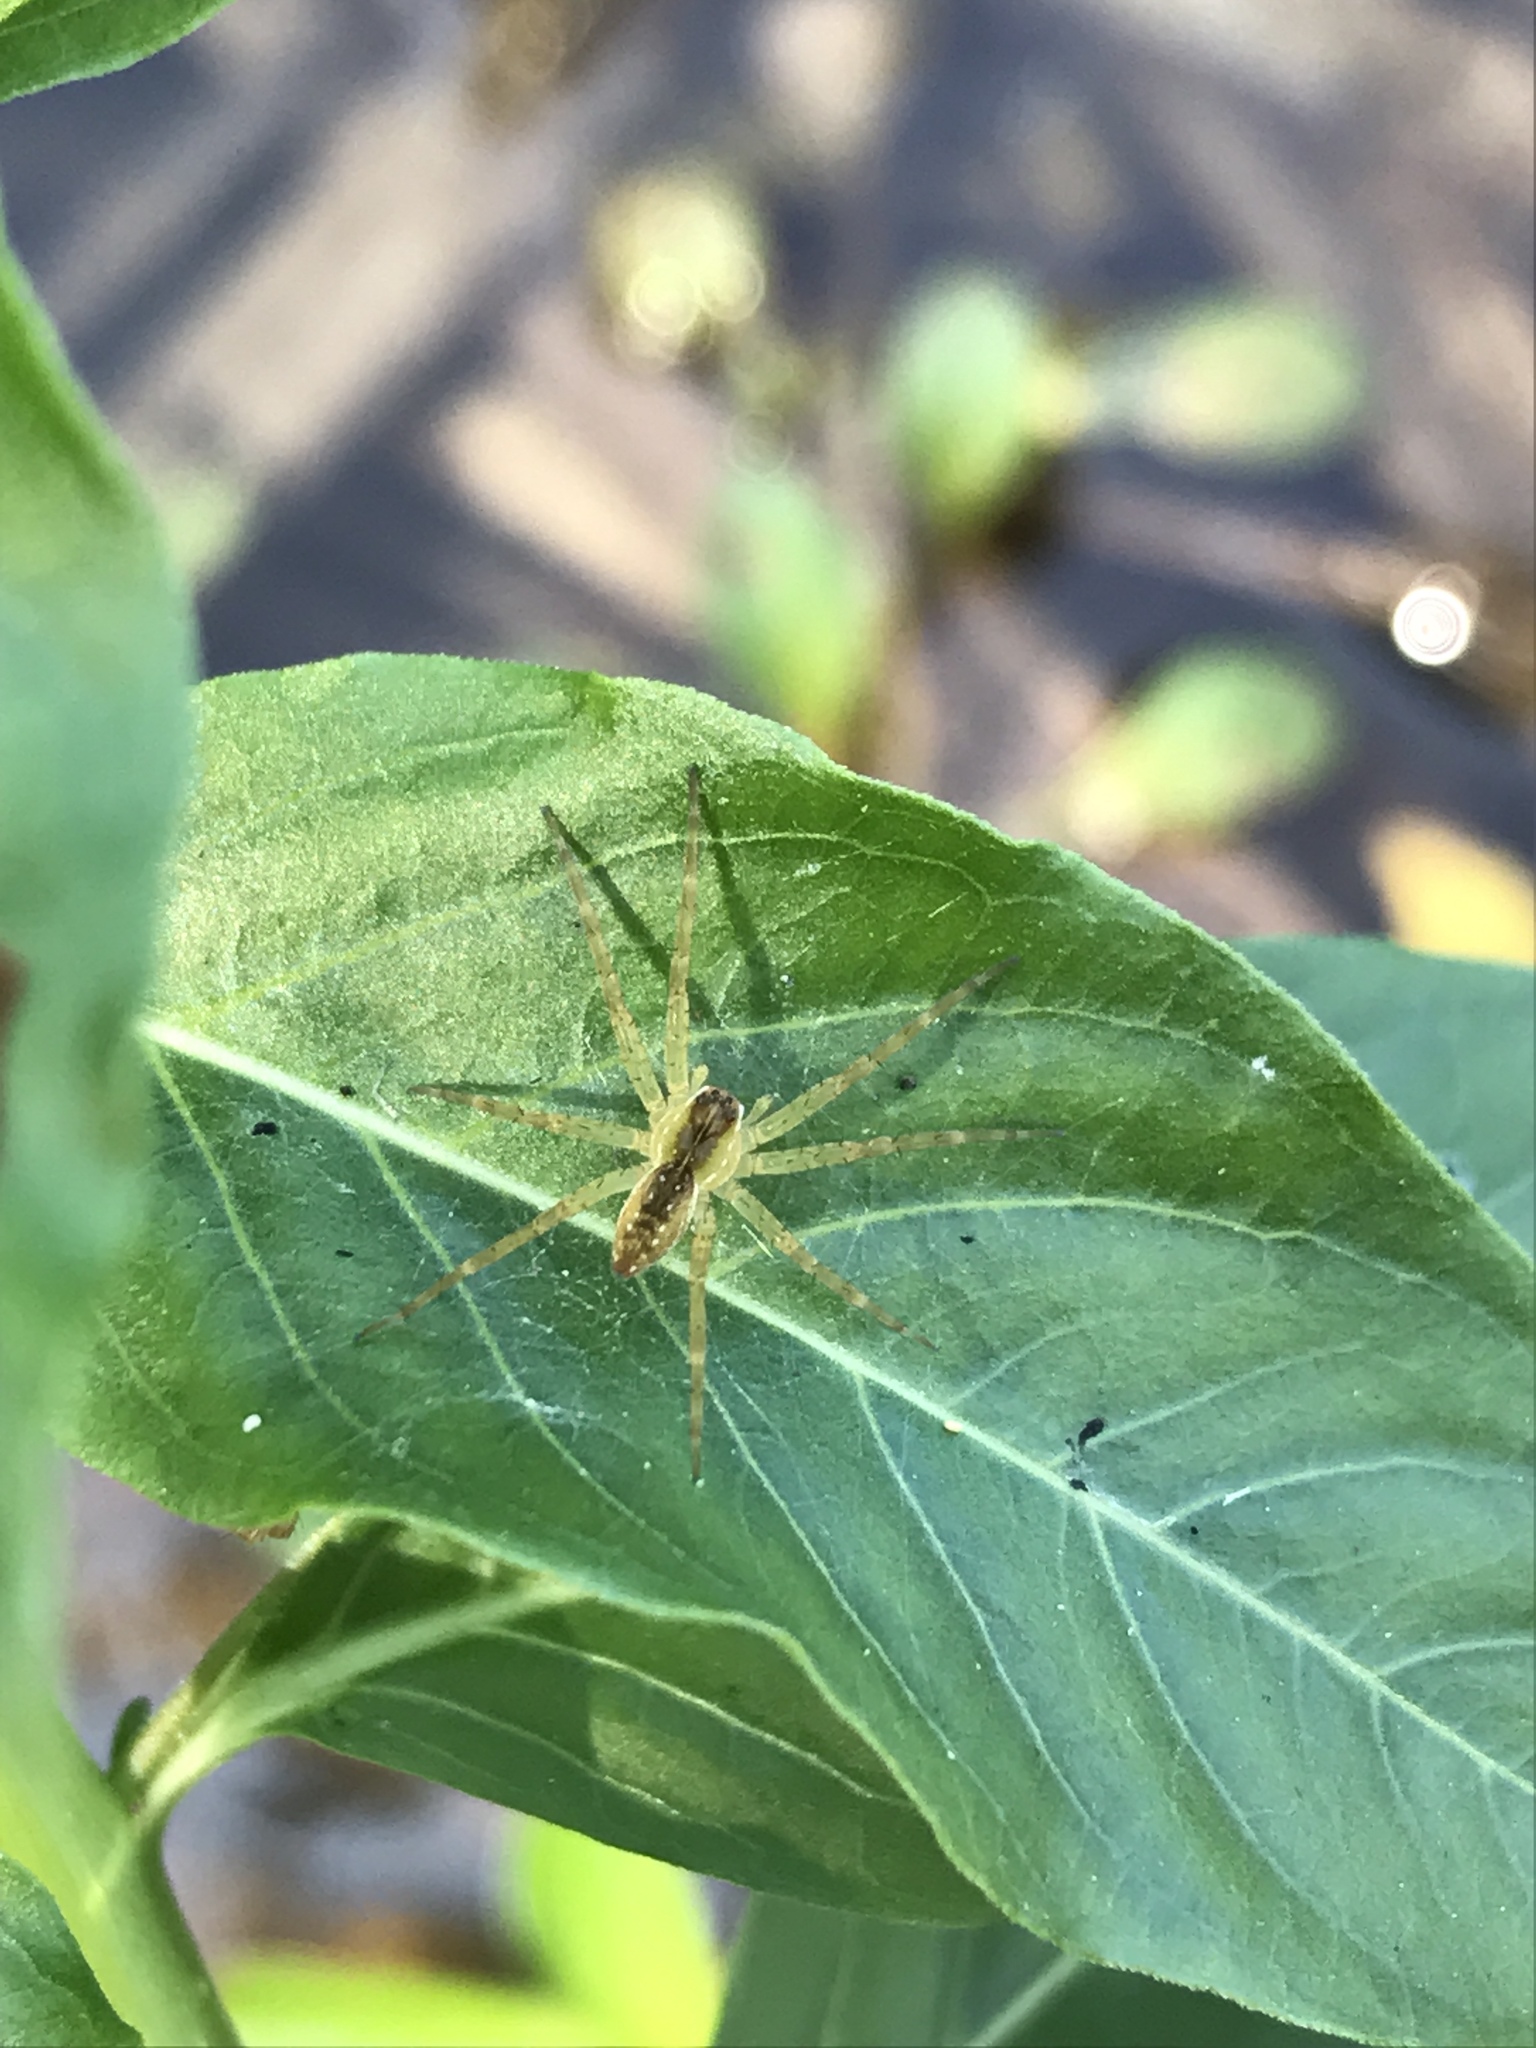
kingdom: Animalia
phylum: Arthropoda
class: Arachnida
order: Araneae
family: Pisauridae
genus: Dolomedes
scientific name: Dolomedes triton
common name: Six-spotted fishing spider
